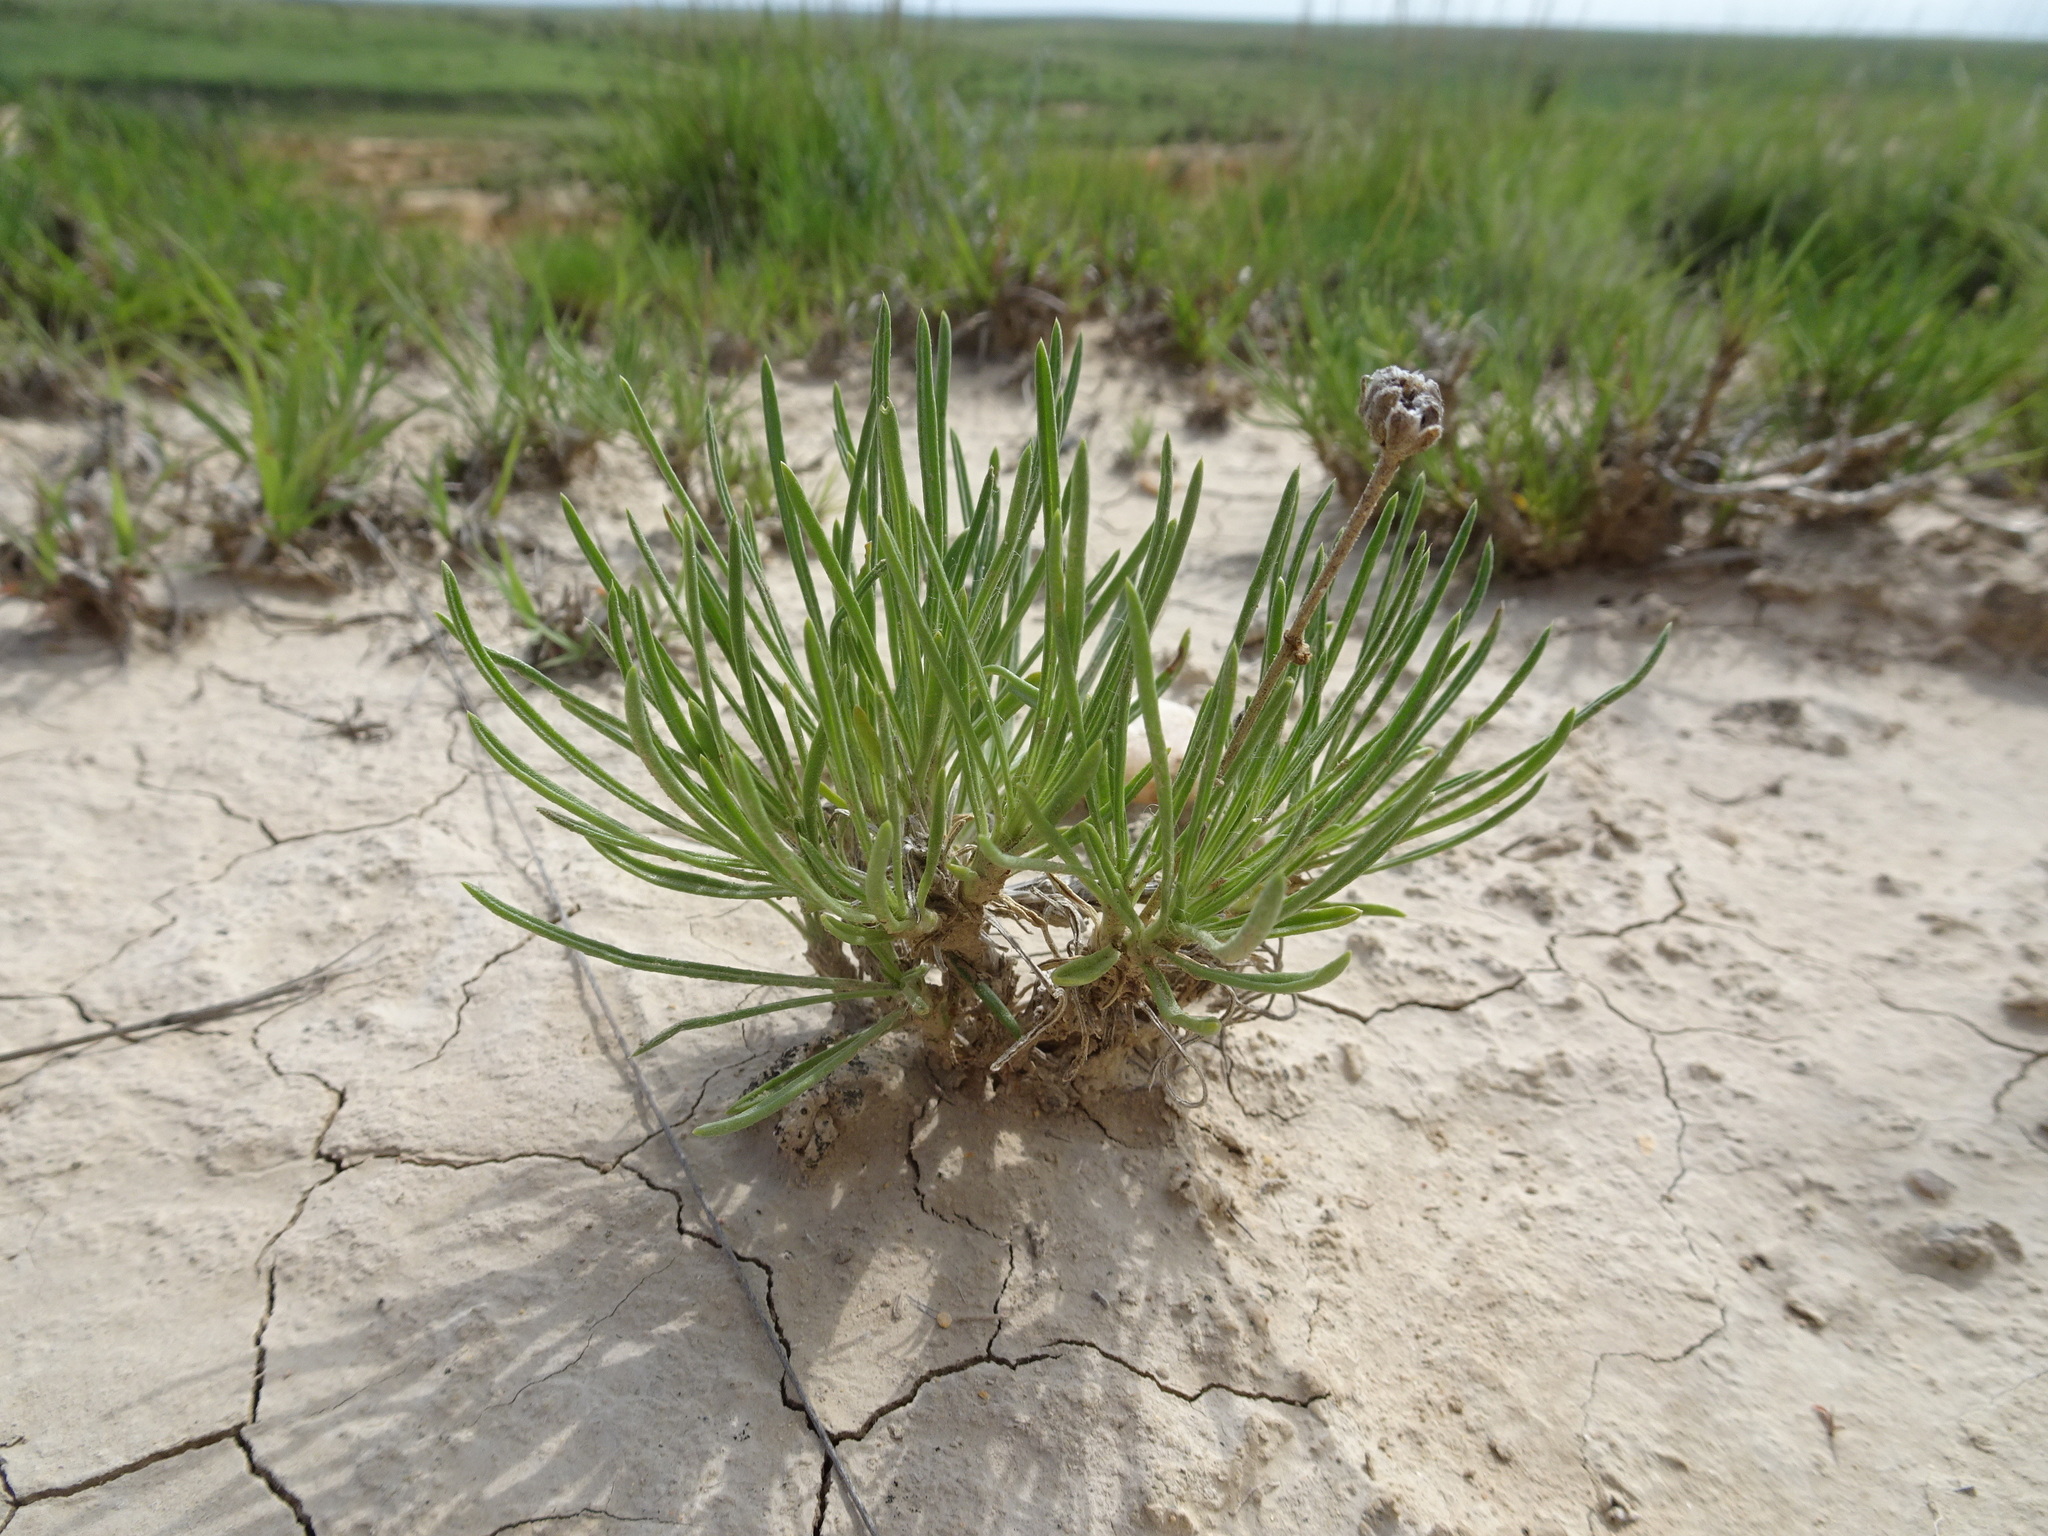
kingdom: Plantae
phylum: Tracheophyta
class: Magnoliopsida
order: Asterales
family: Asteraceae
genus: Tetraneuris
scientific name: Tetraneuris scaposa
